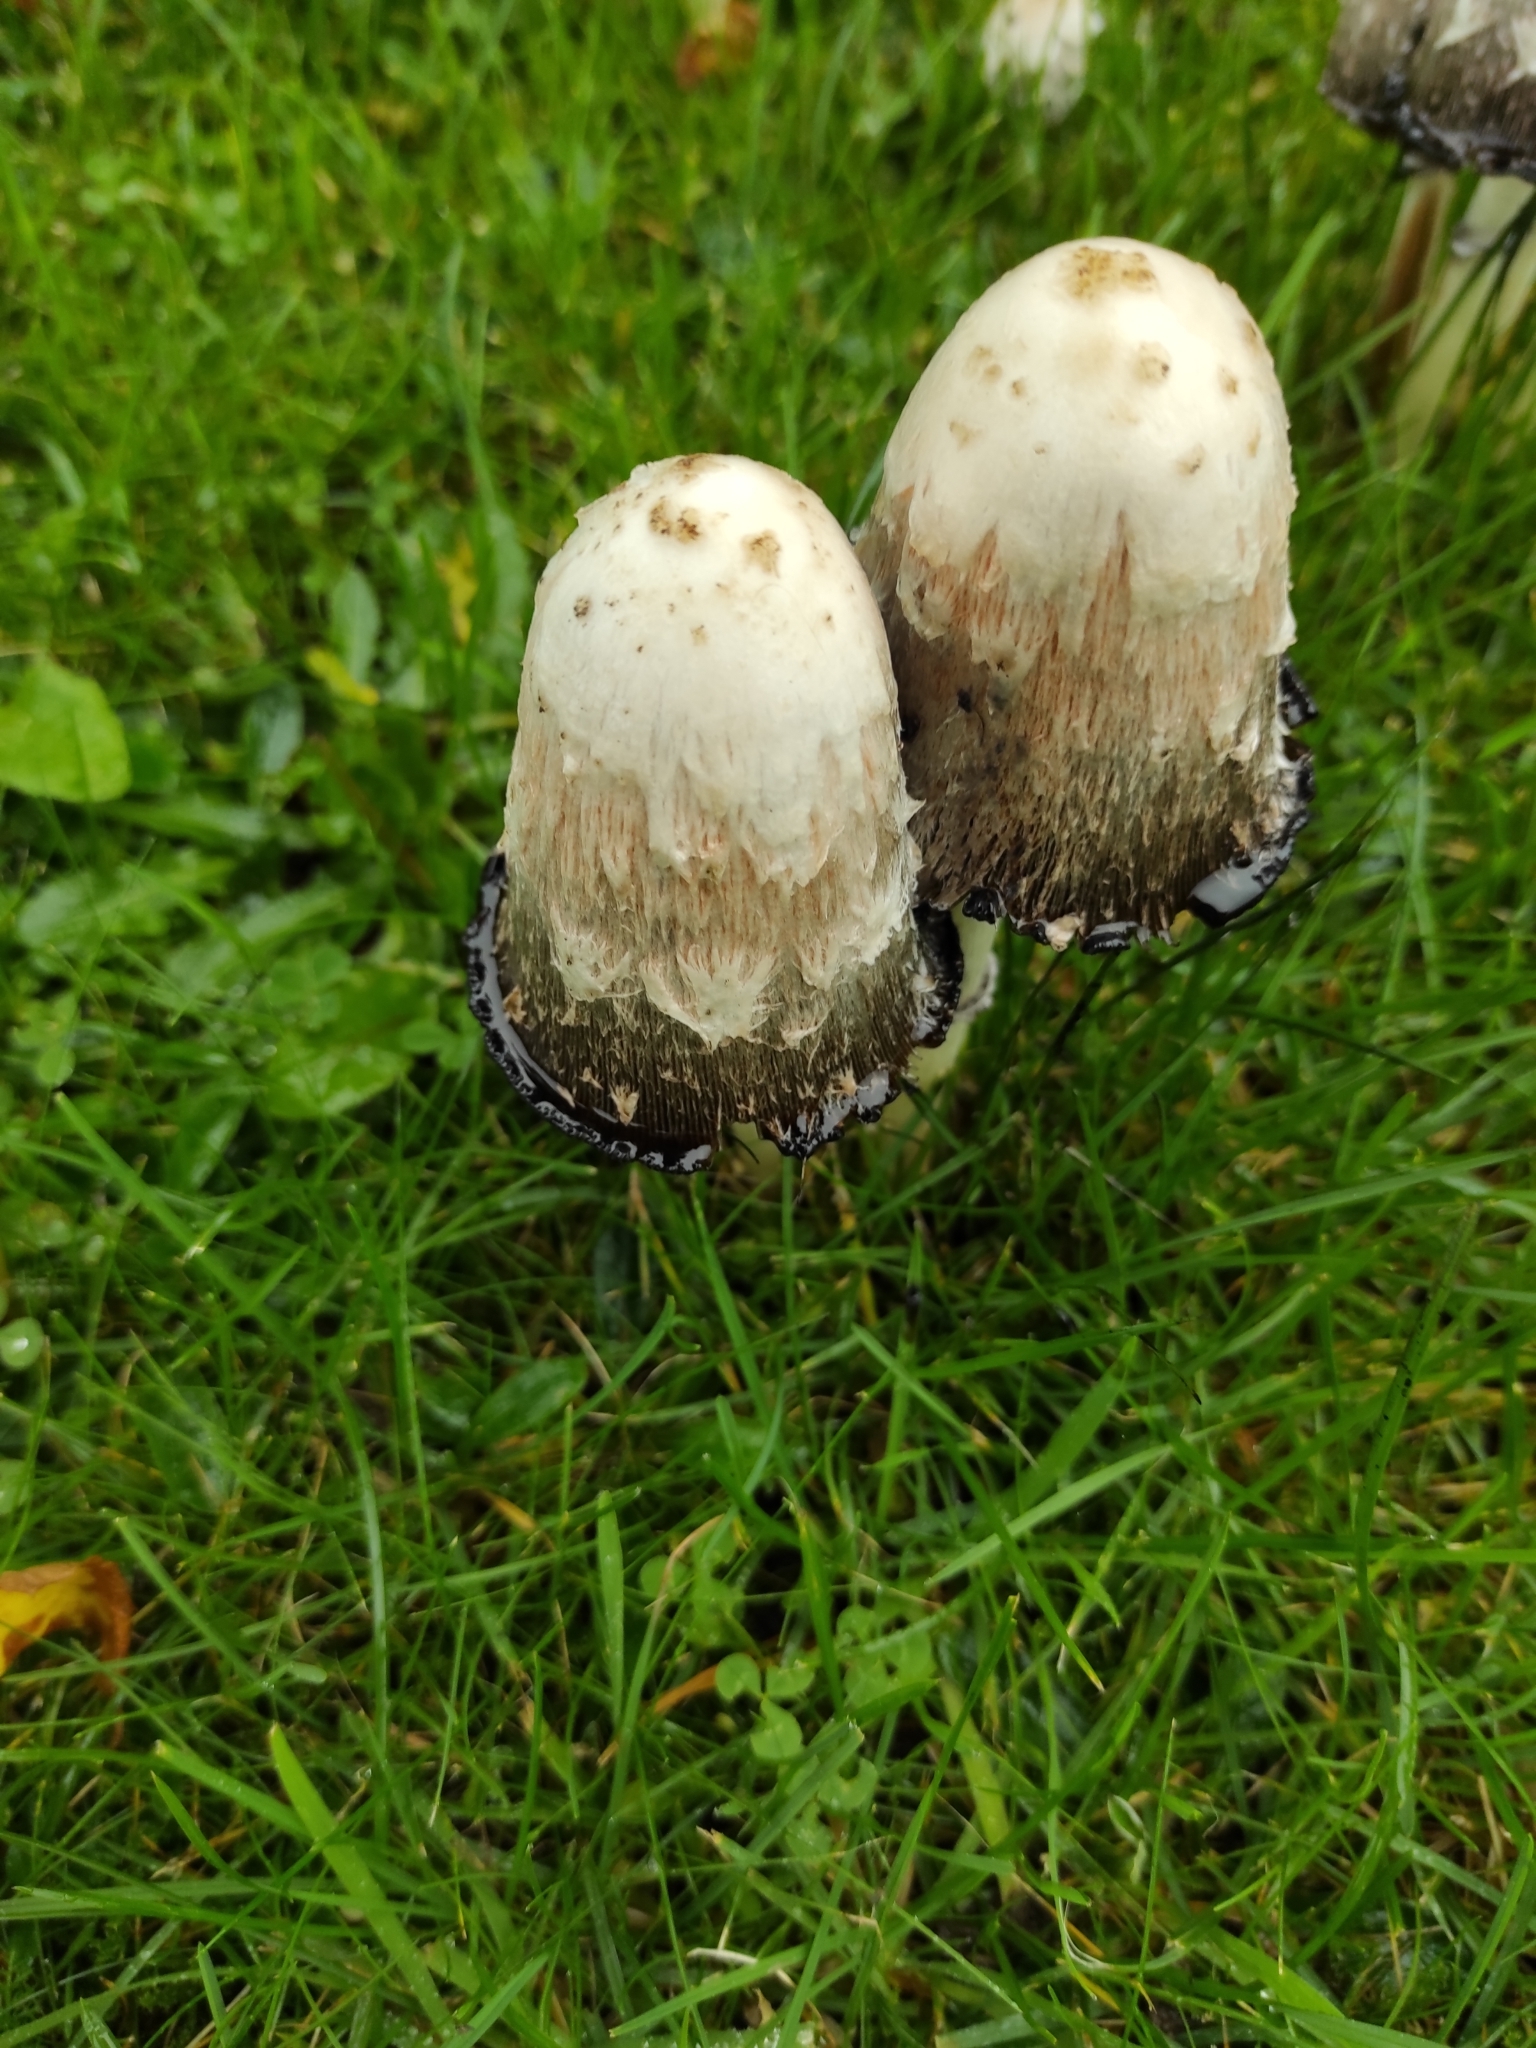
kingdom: Fungi
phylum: Basidiomycota
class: Agaricomycetes
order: Agaricales
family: Agaricaceae
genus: Coprinus
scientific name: Coprinus comatus
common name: Lawyer's wig
